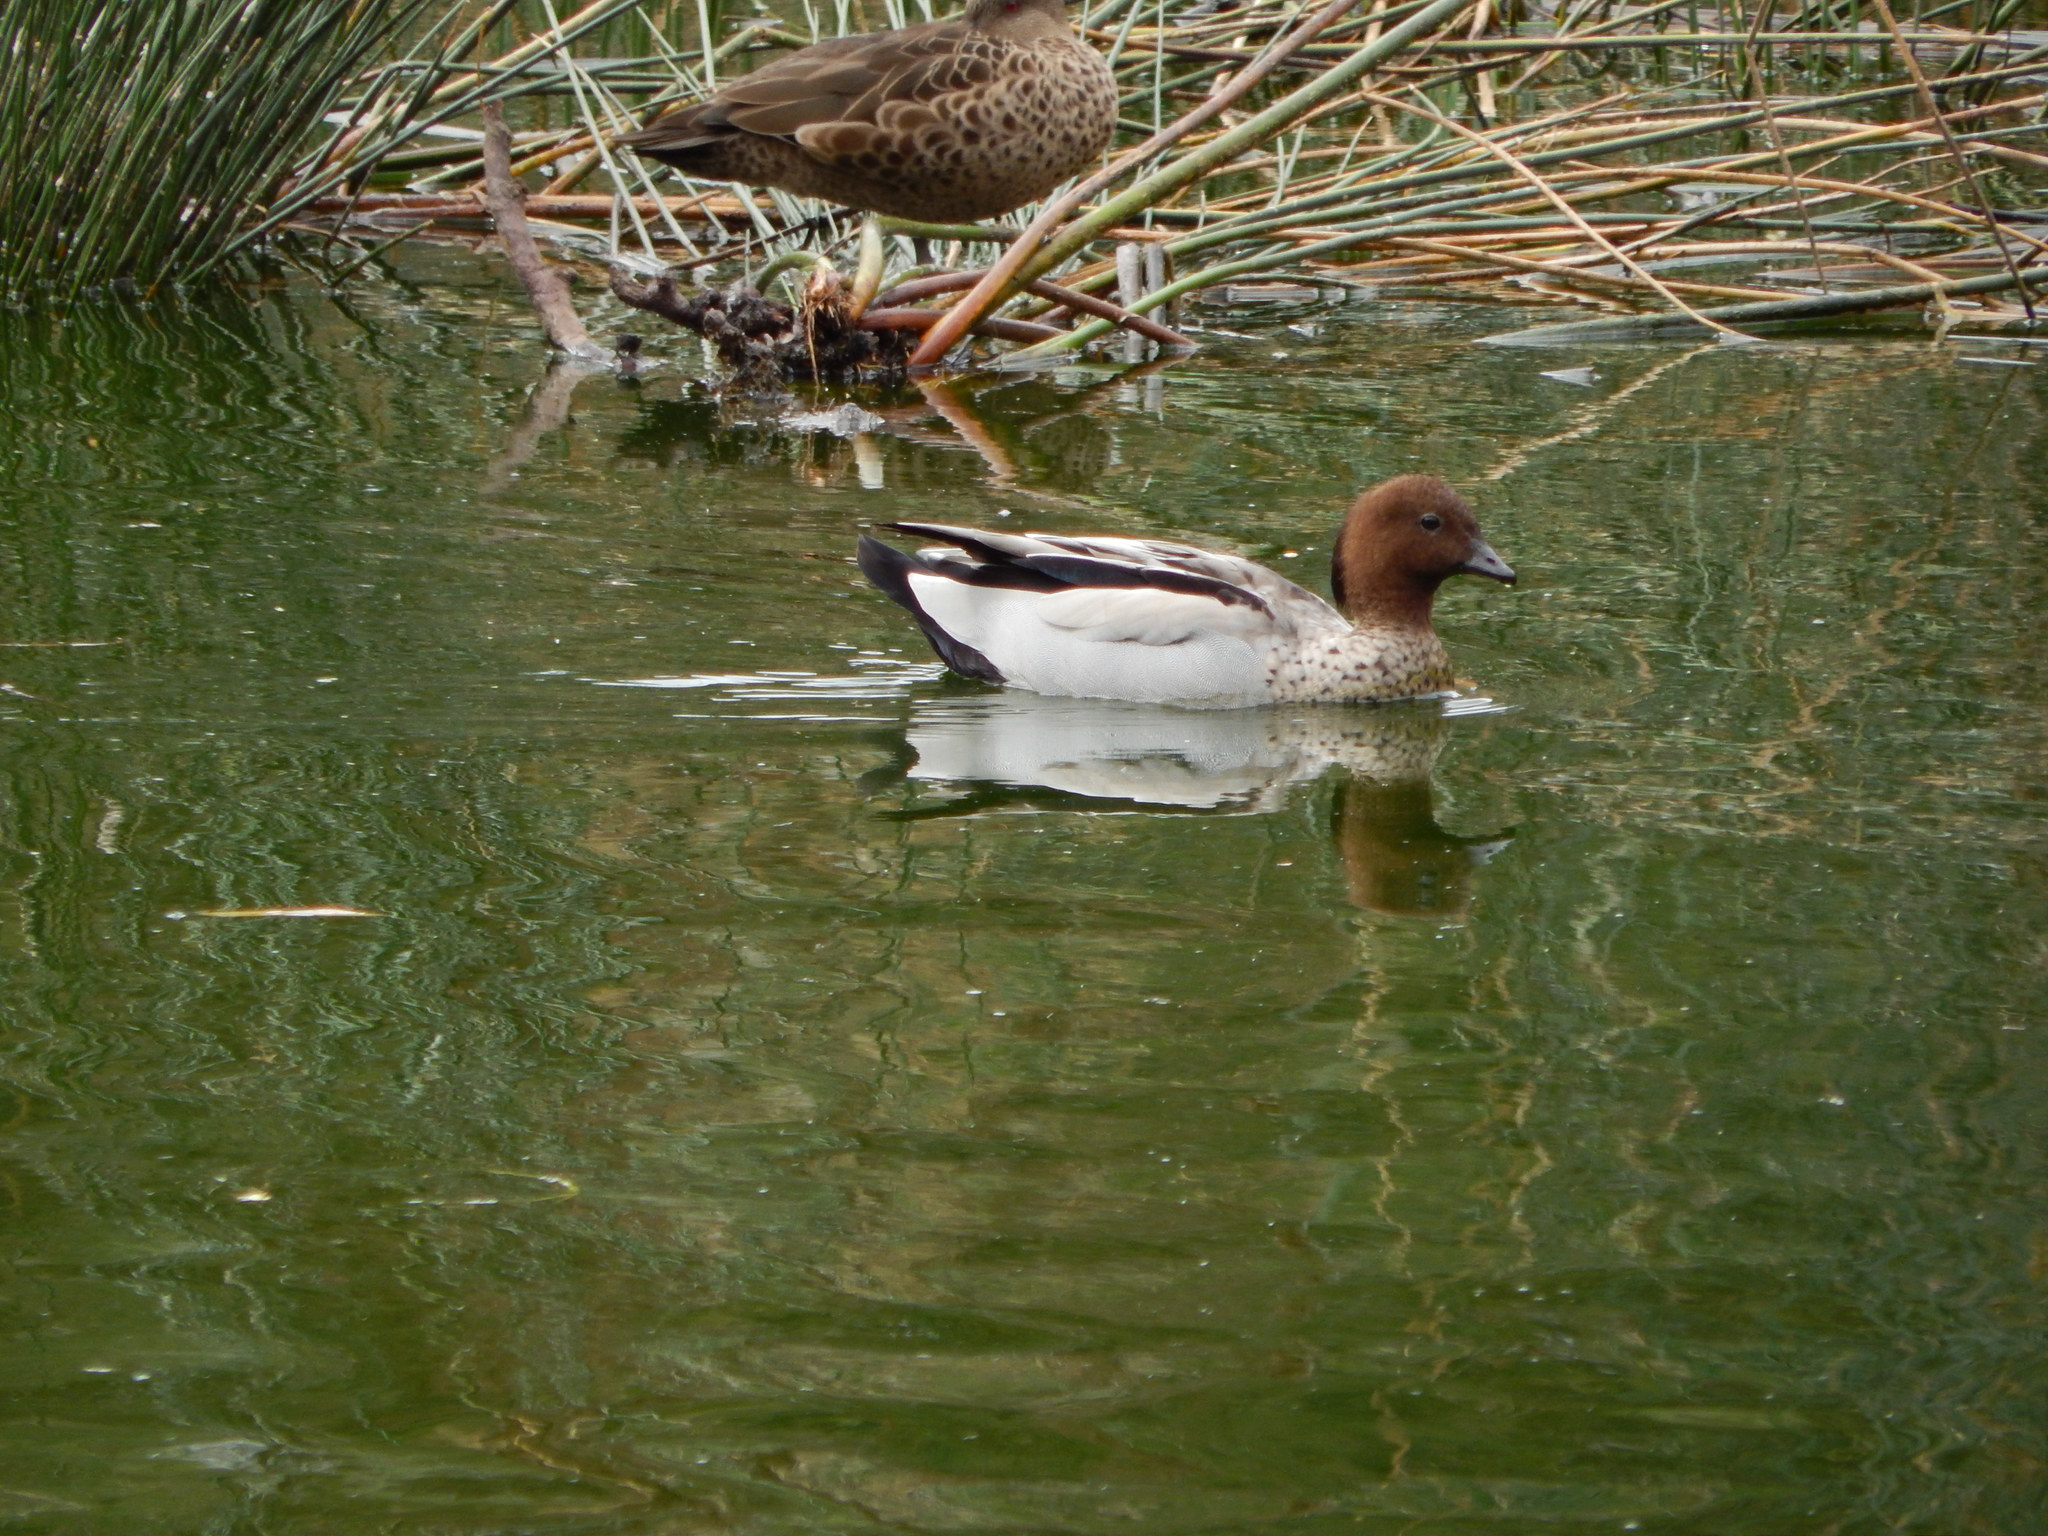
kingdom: Animalia
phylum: Chordata
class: Aves
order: Anseriformes
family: Anatidae
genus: Chenonetta
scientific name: Chenonetta jubata
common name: Maned duck
